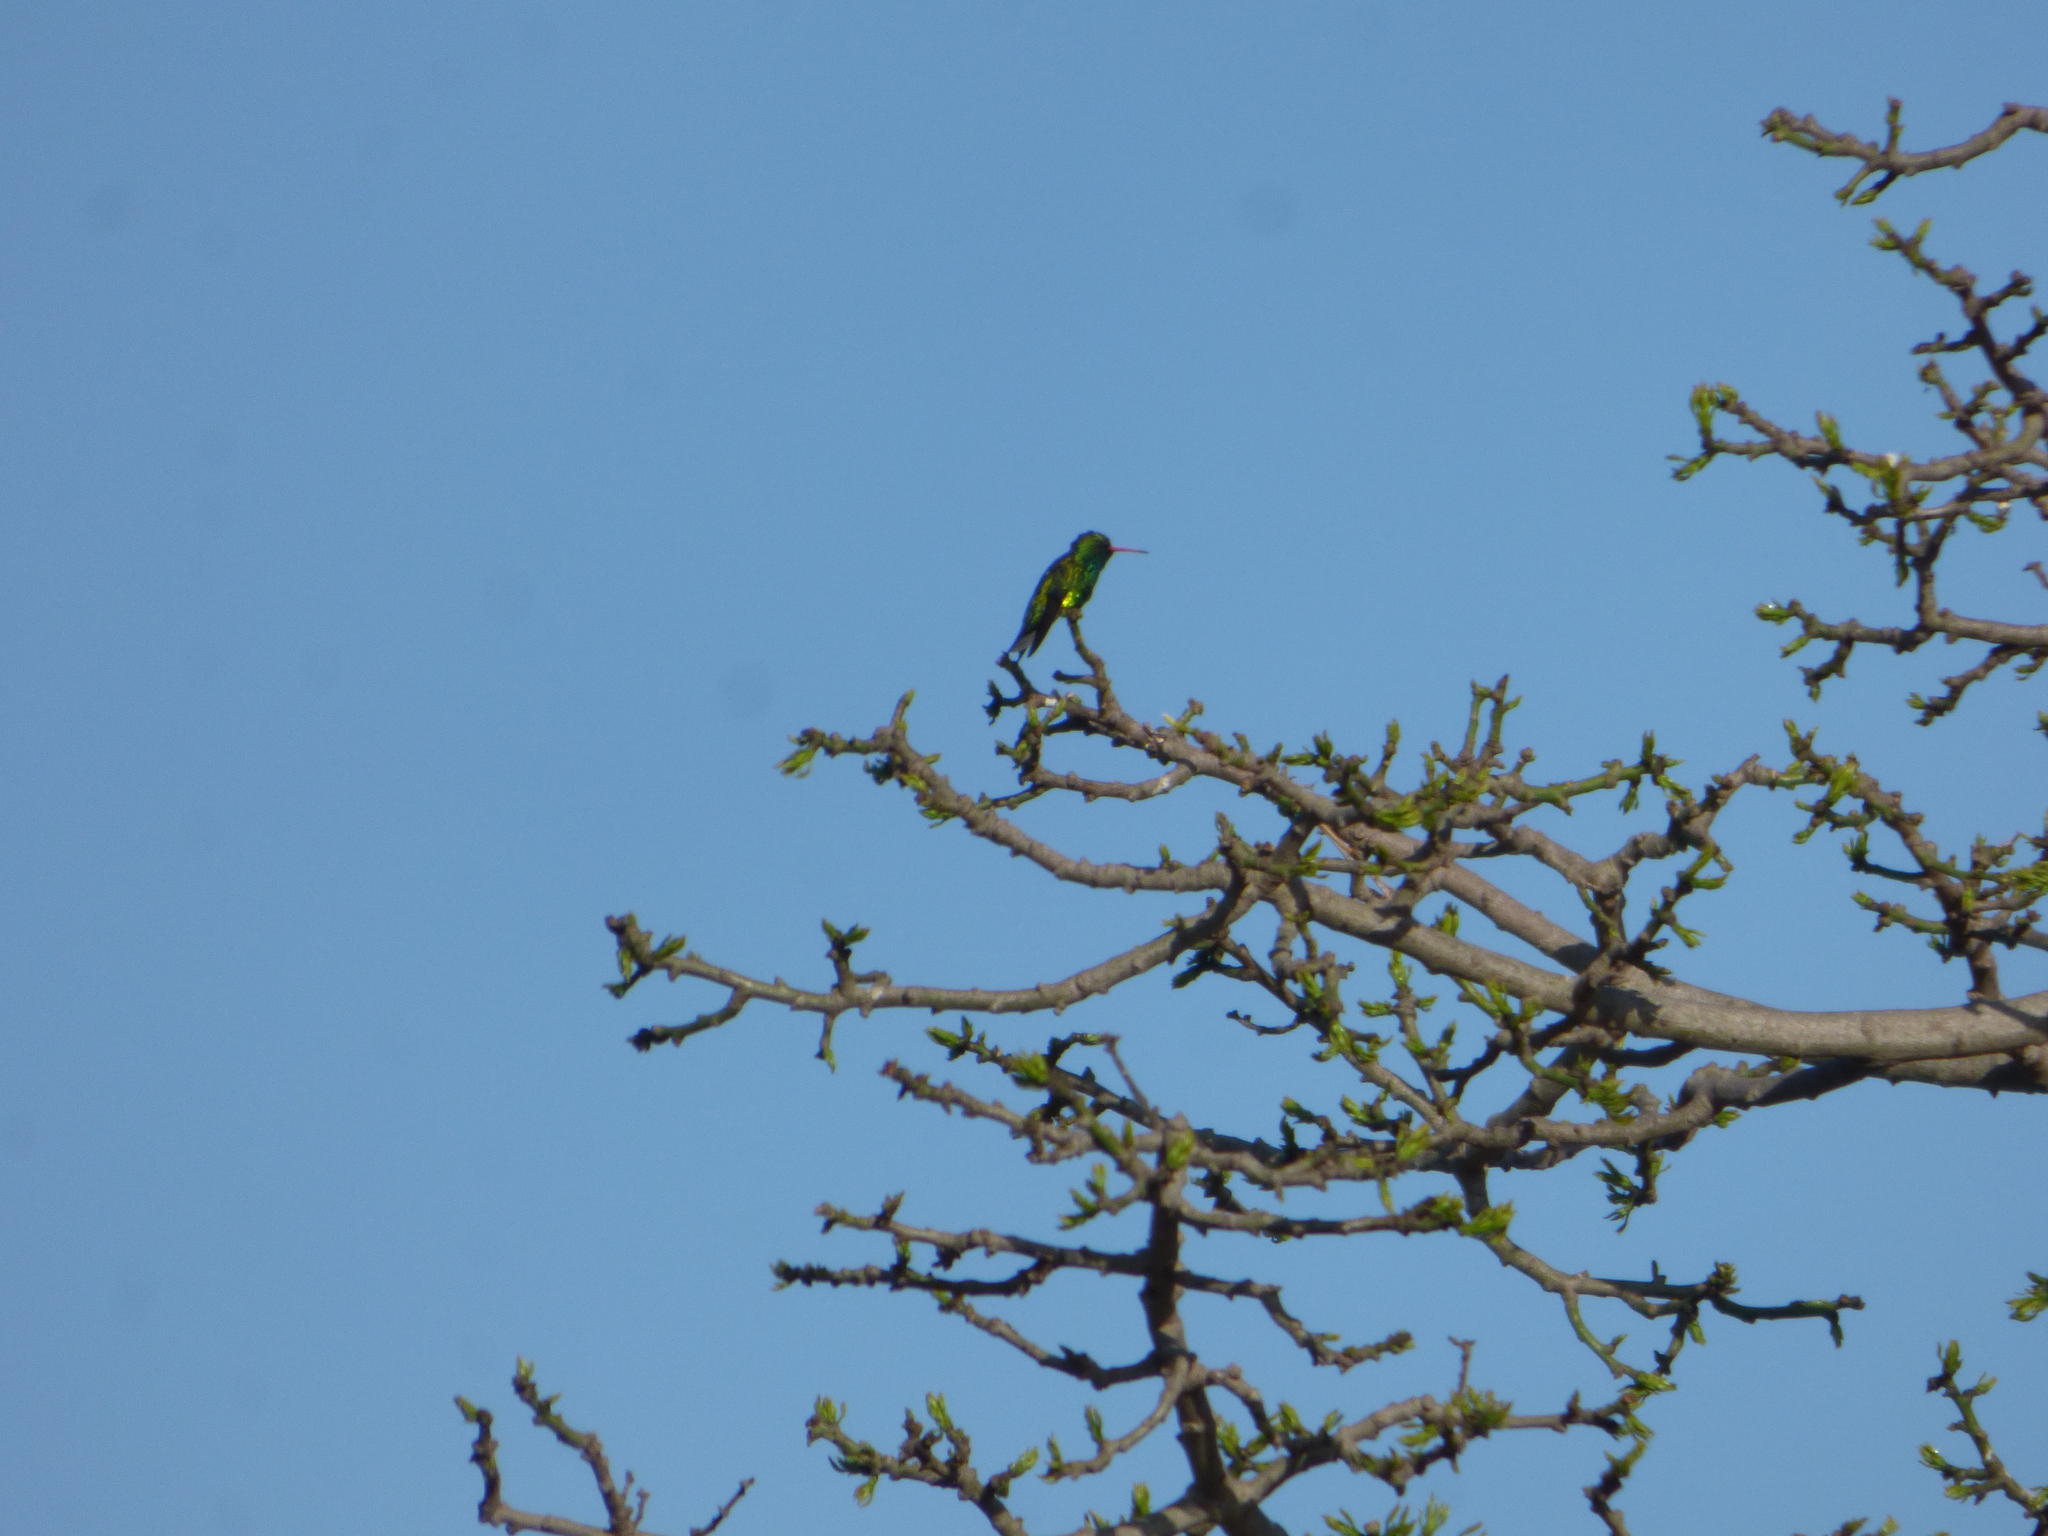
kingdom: Animalia
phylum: Chordata
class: Aves
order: Apodiformes
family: Trochilidae
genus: Chlorostilbon
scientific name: Chlorostilbon lucidus
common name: Glittering-bellied emerald
